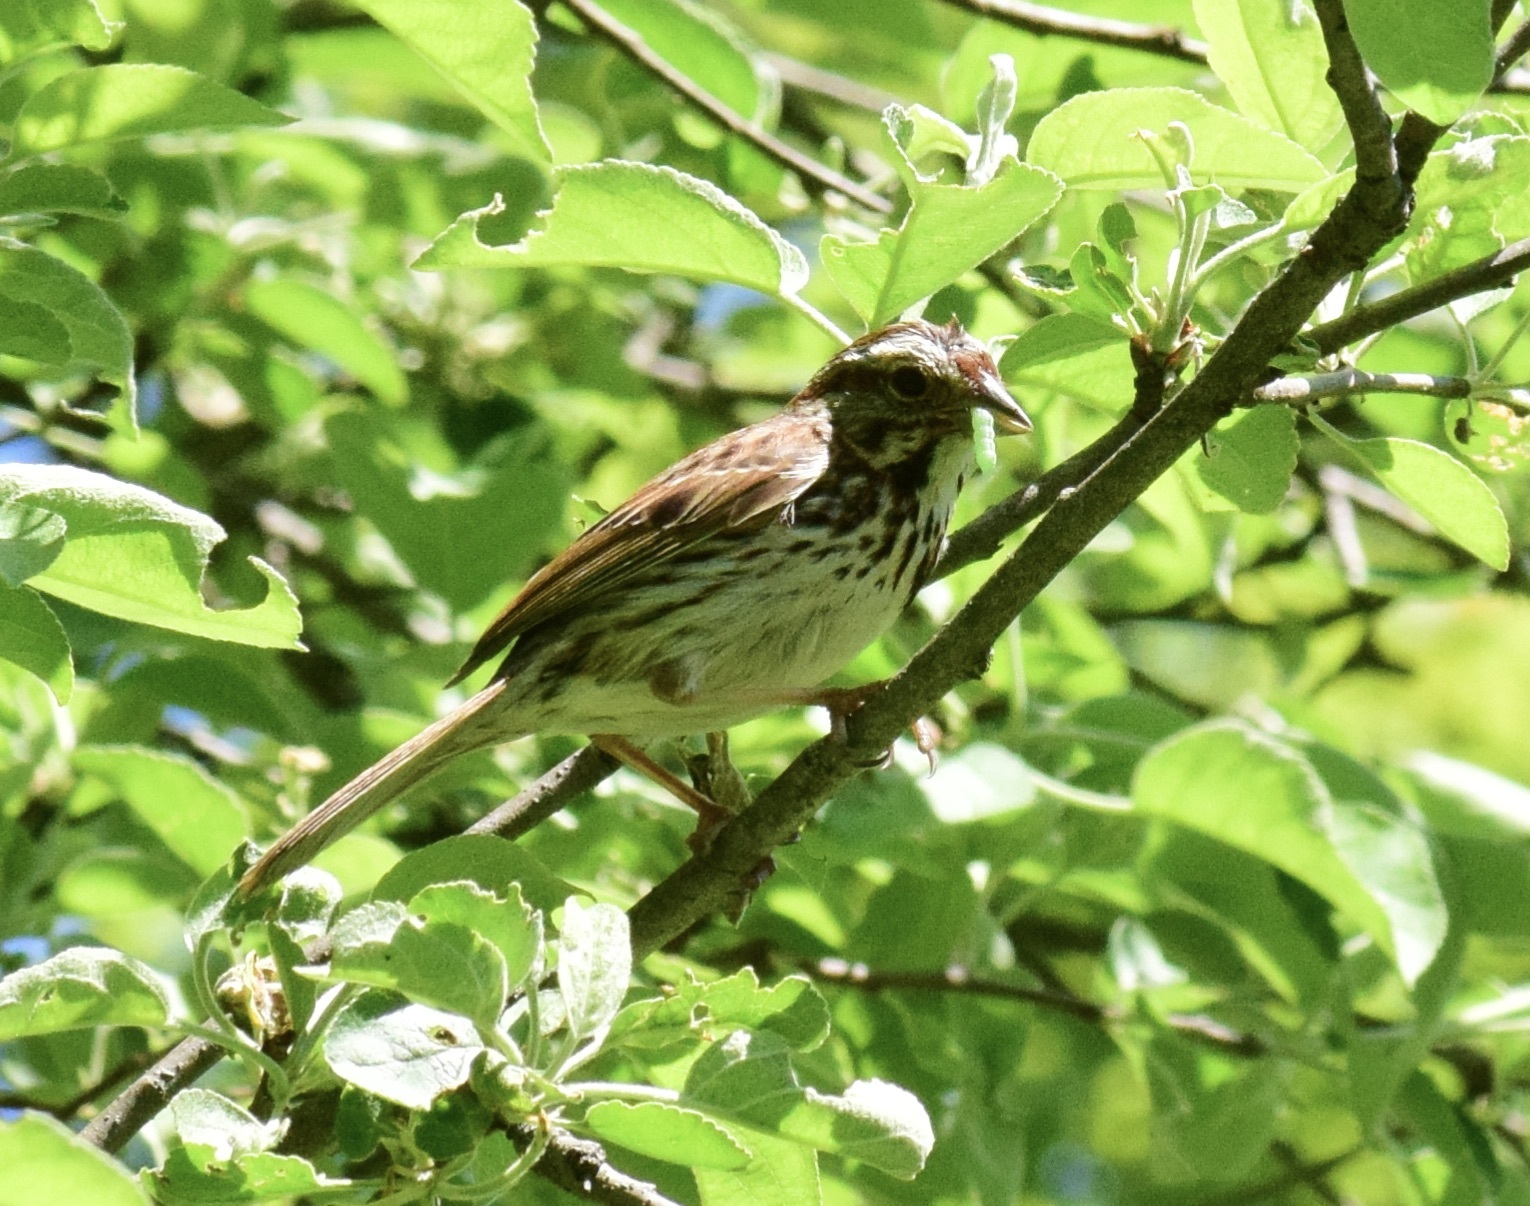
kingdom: Animalia
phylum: Chordata
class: Aves
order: Passeriformes
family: Passerellidae
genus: Melospiza
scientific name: Melospiza melodia
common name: Song sparrow
